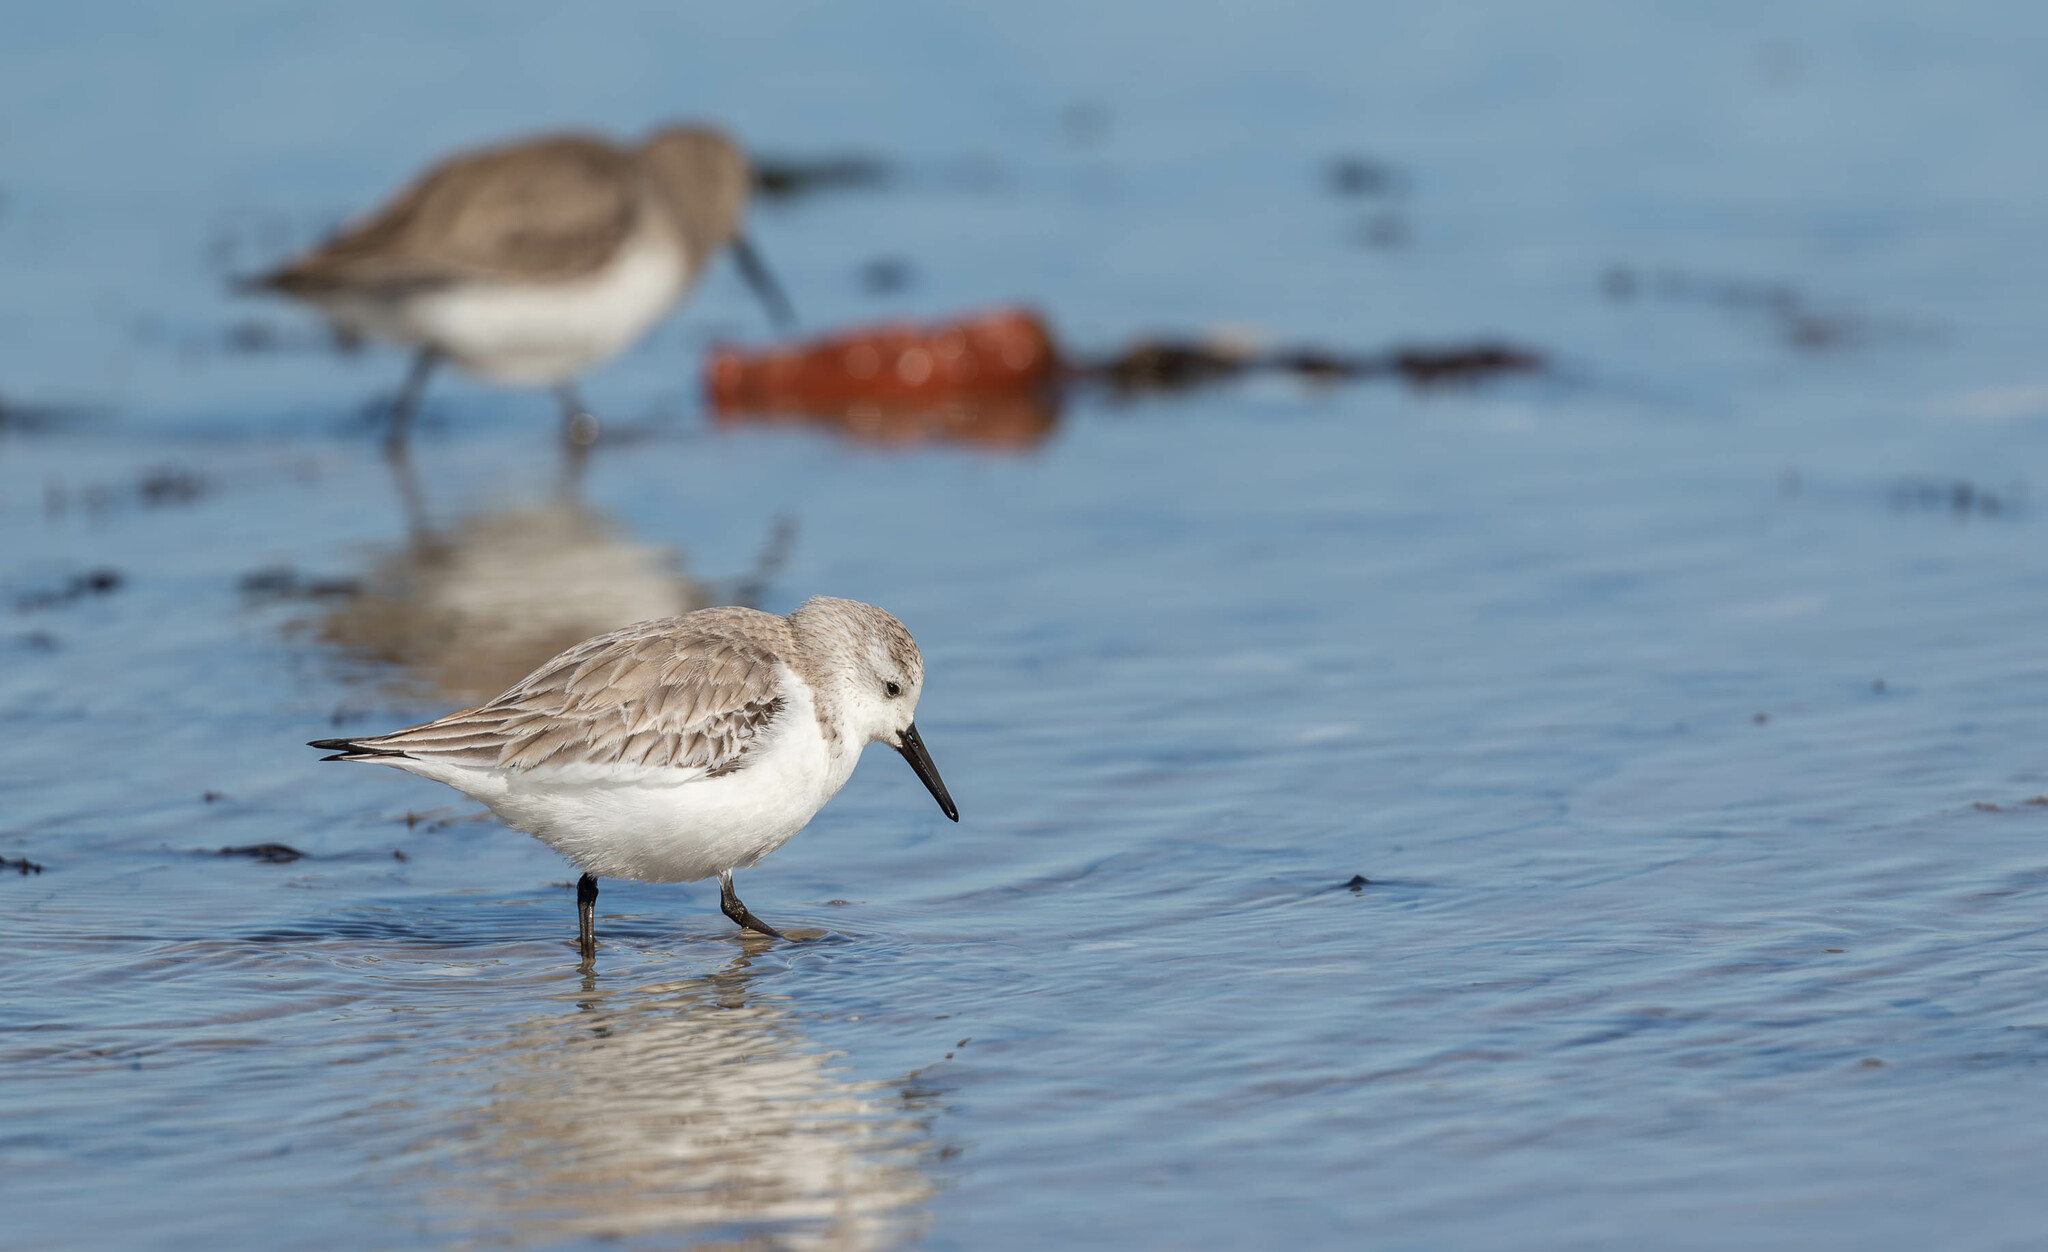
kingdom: Animalia
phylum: Chordata
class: Aves
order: Charadriiformes
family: Scolopacidae
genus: Calidris
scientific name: Calidris alba
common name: Sanderling
